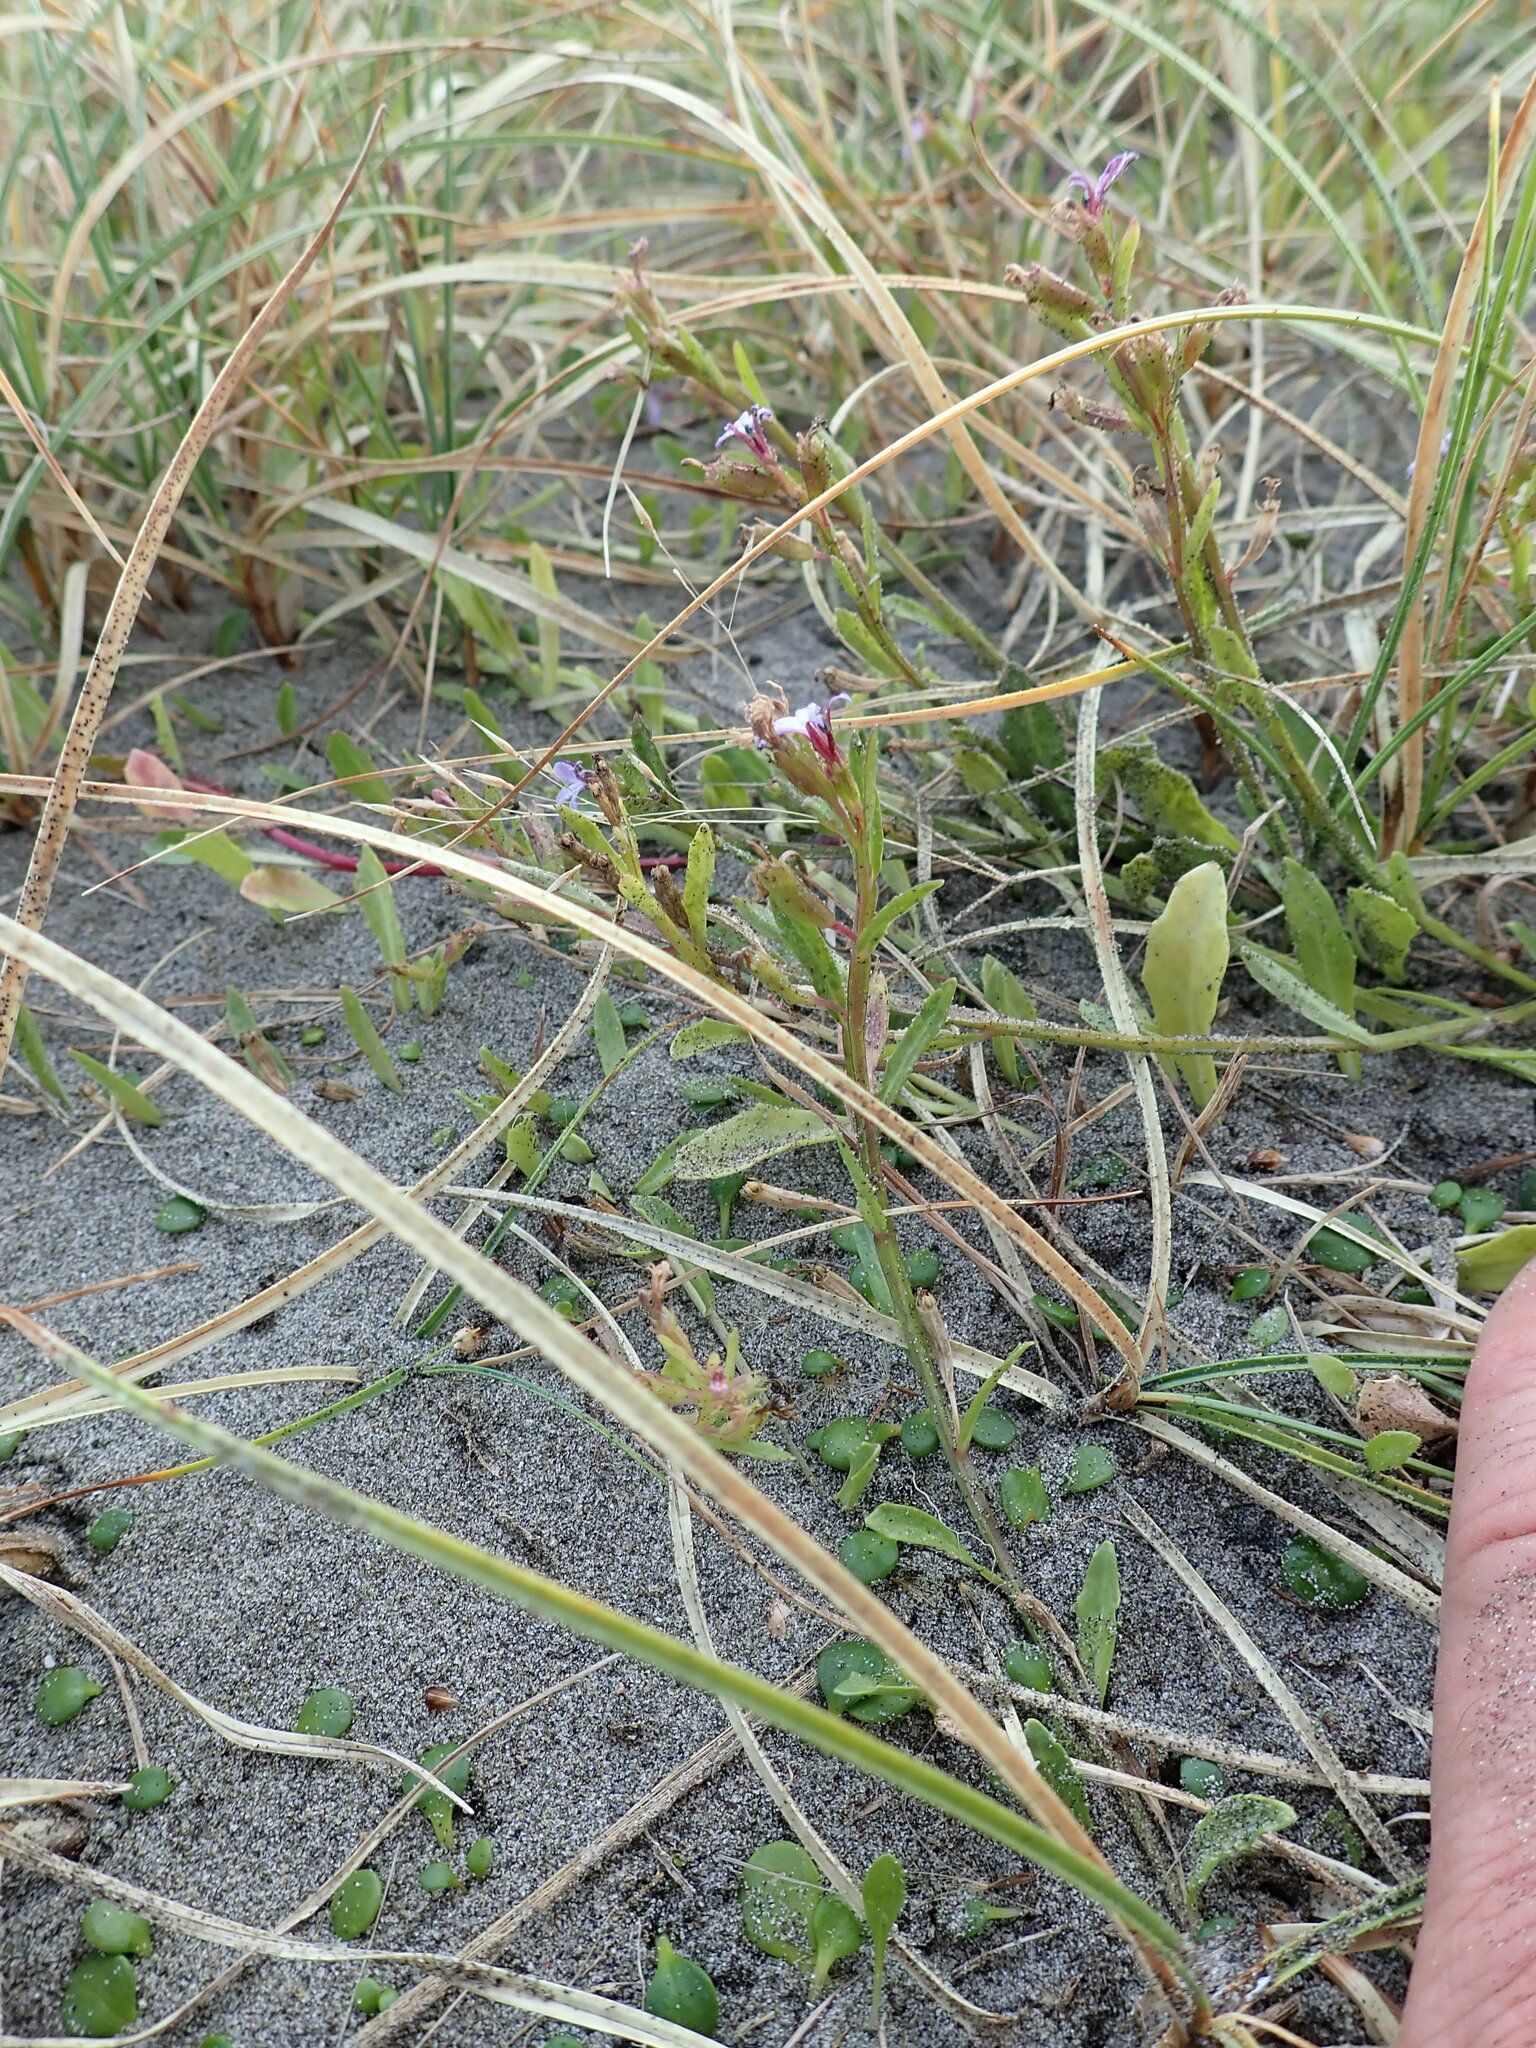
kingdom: Plantae
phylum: Tracheophyta
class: Magnoliopsida
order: Asterales
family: Campanulaceae
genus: Lobelia
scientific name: Lobelia anceps
